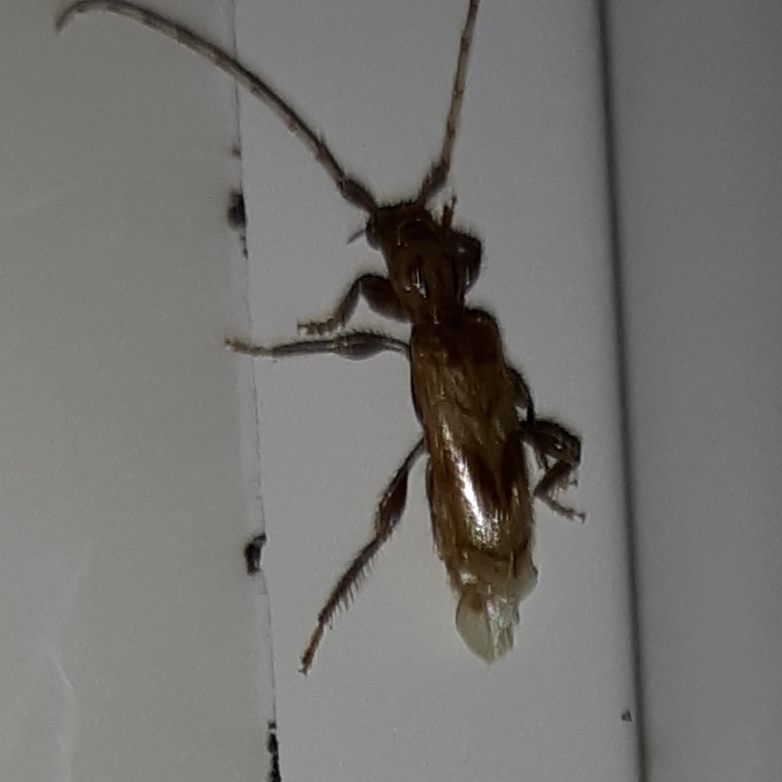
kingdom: Animalia
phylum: Arthropoda
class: Insecta
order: Coleoptera
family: Cerambycidae
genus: Obrium
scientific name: Obrium maculatum
